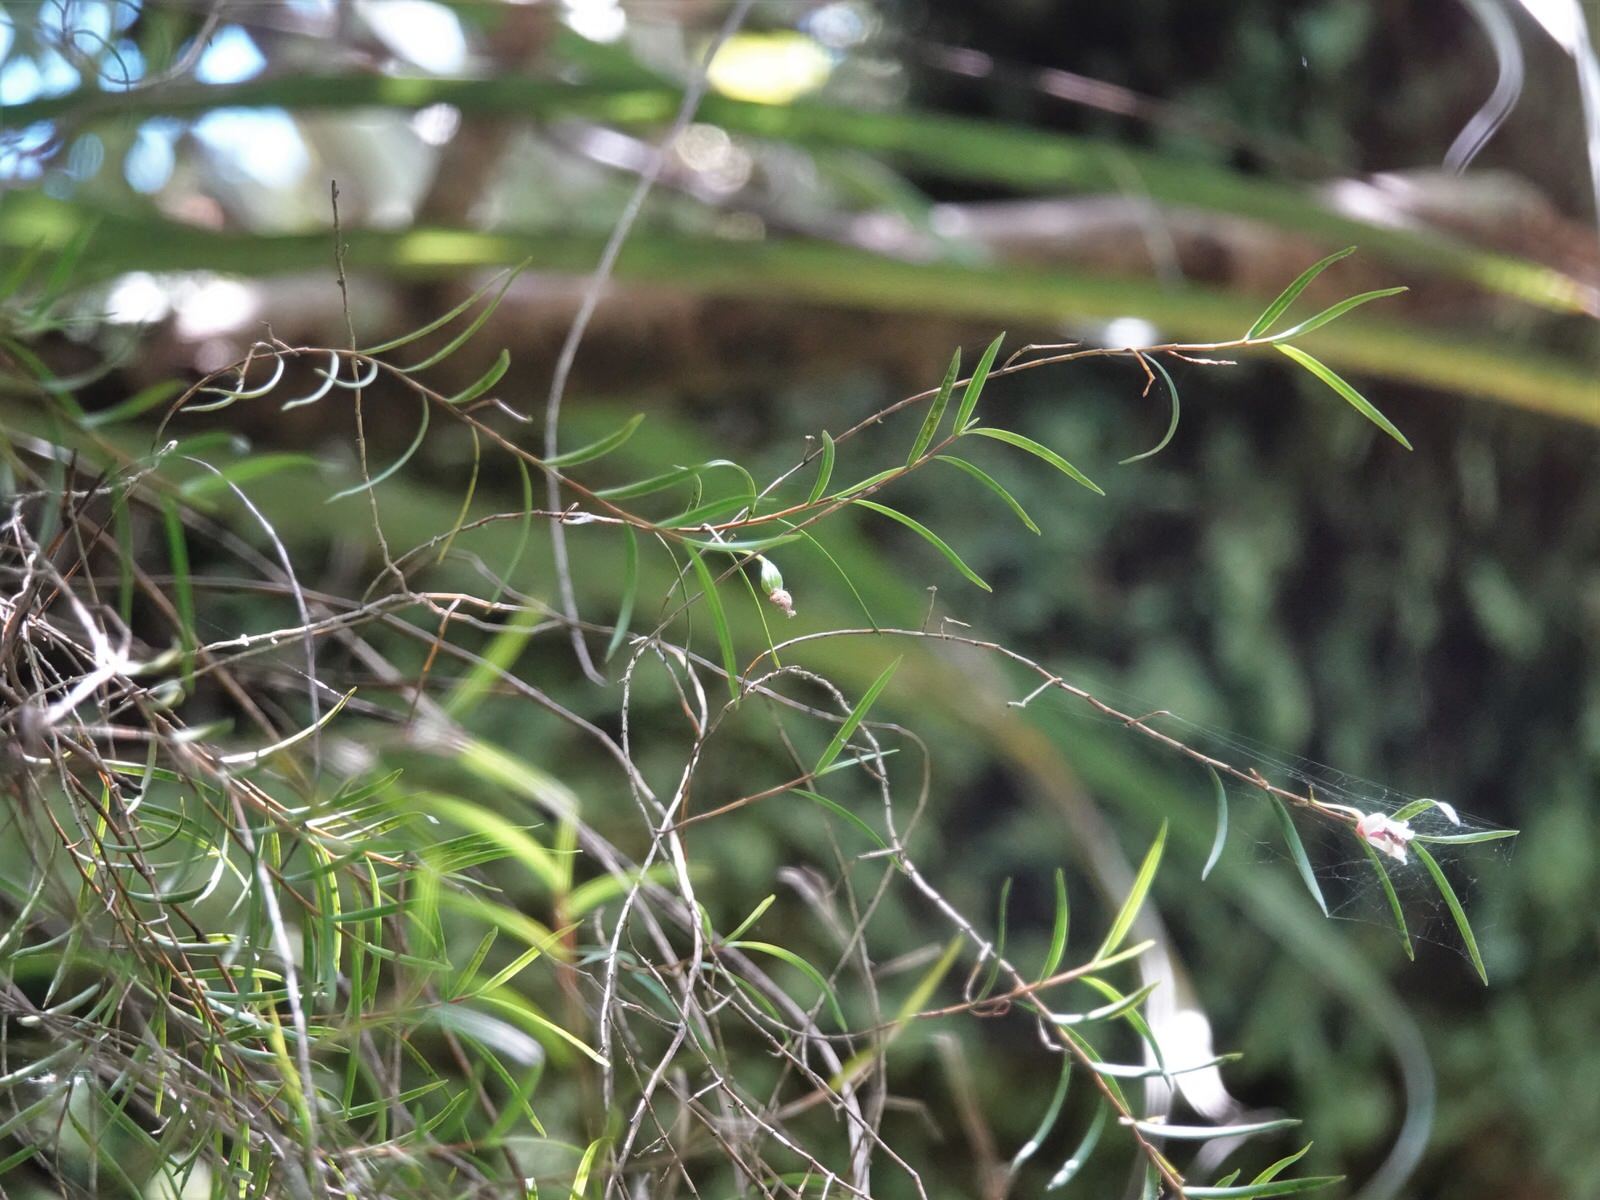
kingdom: Plantae
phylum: Tracheophyta
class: Liliopsida
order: Asparagales
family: Orchidaceae
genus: Dendrobium
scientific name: Dendrobium cunninghamii
